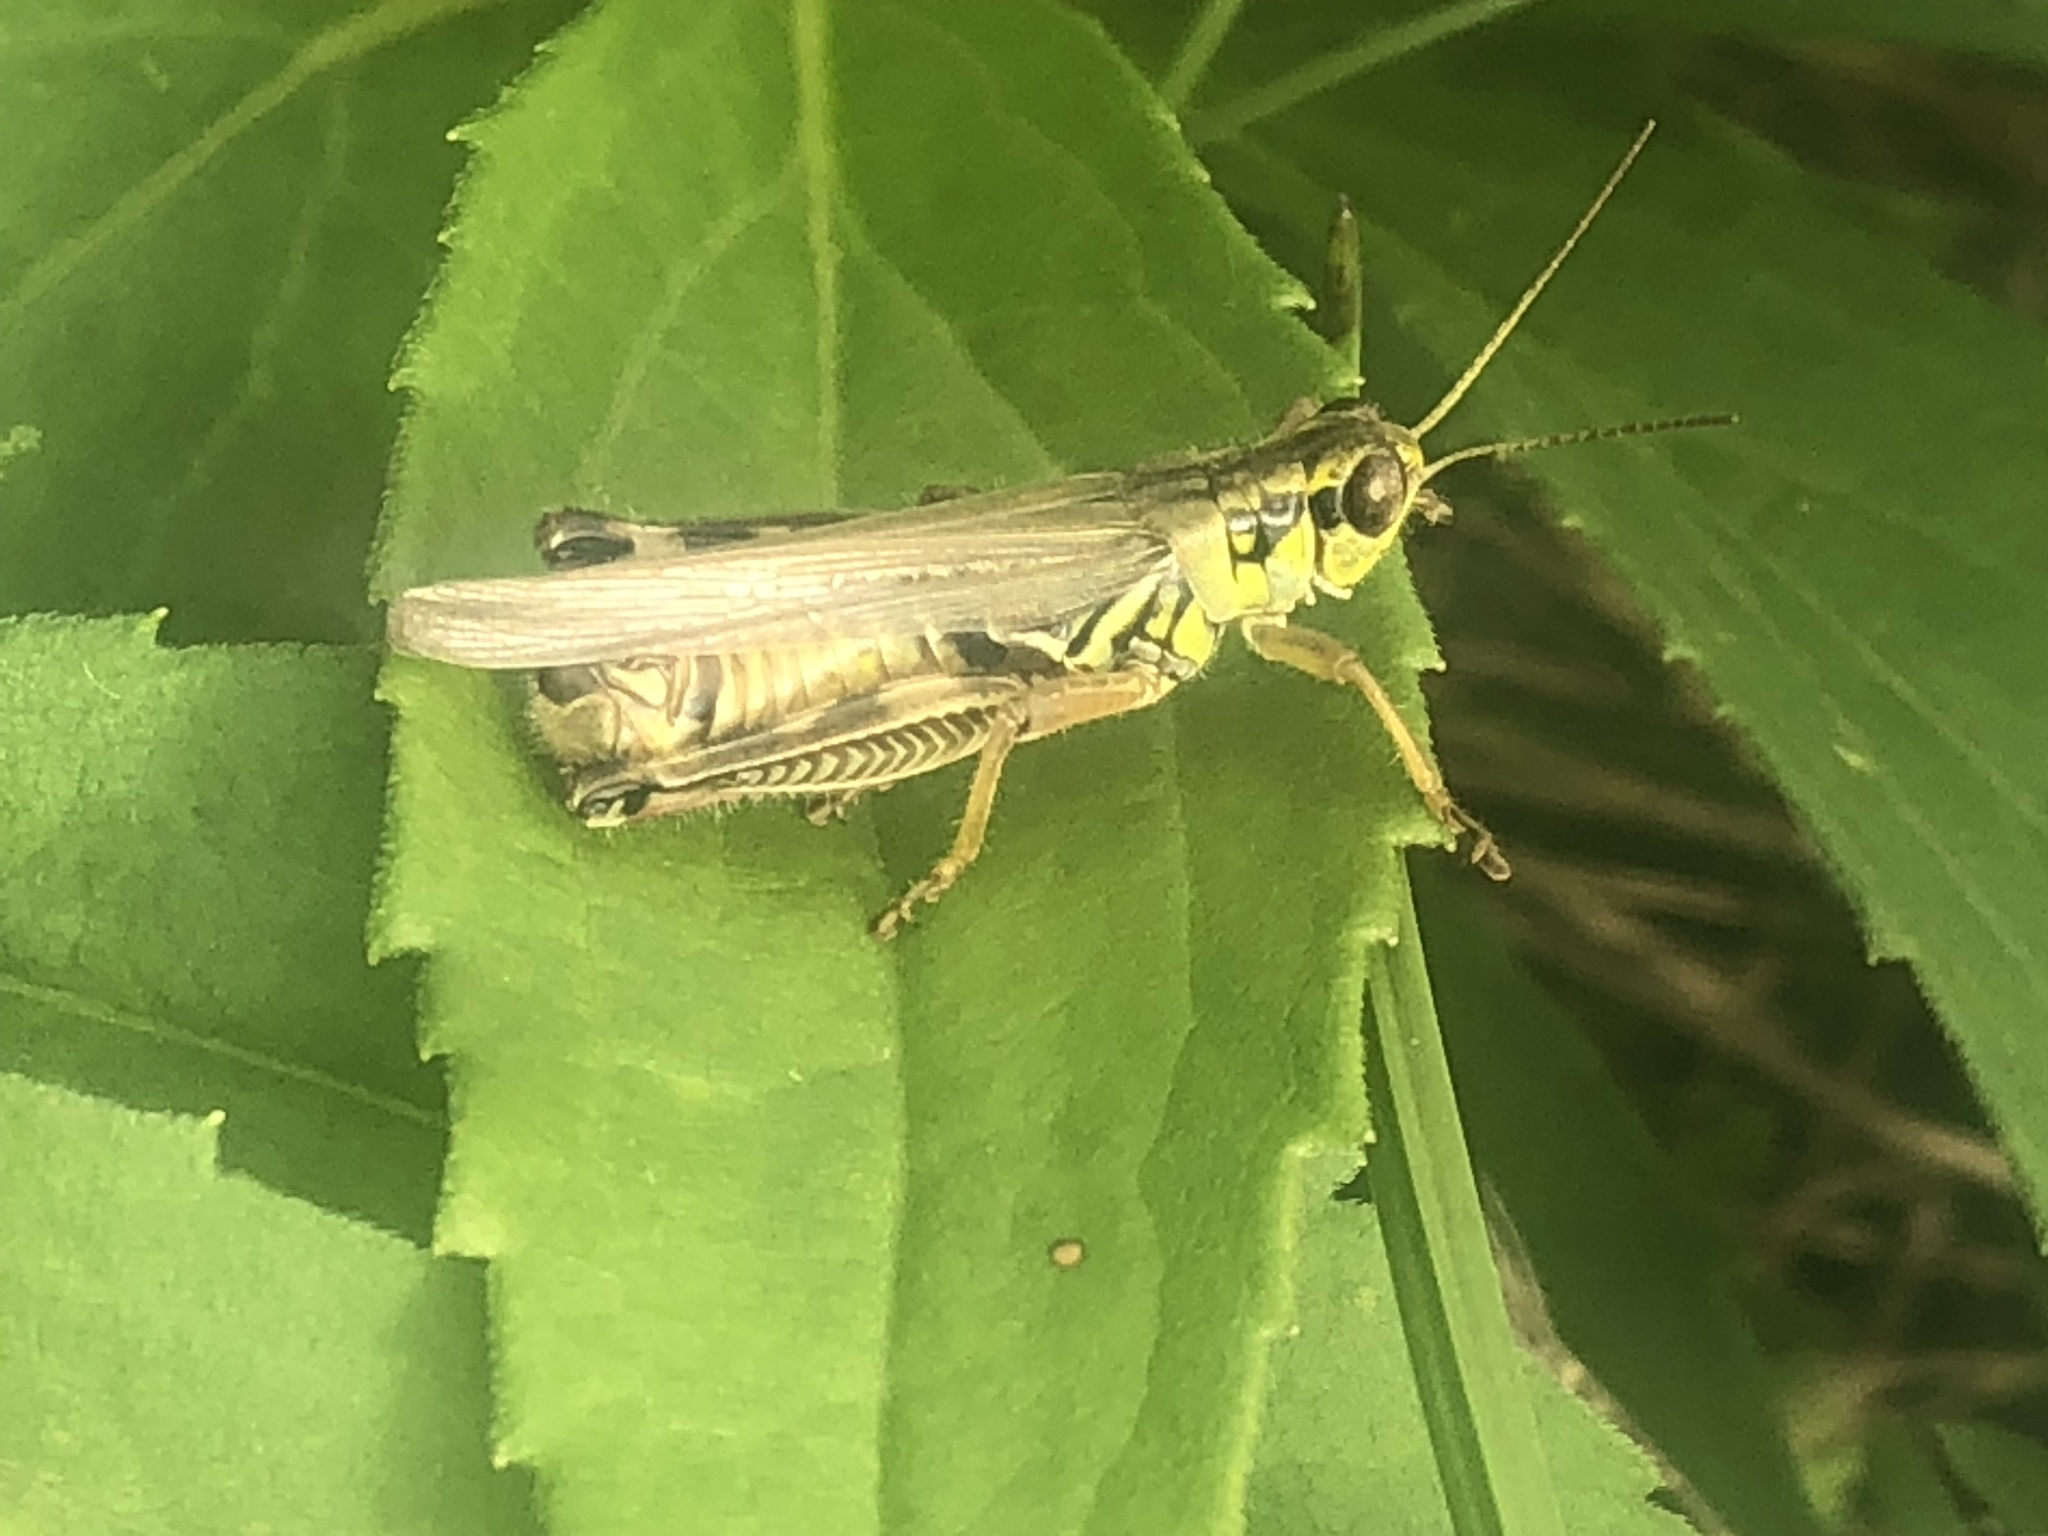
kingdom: Animalia
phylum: Arthropoda
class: Insecta
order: Orthoptera
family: Acrididae
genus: Melanoplus
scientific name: Melanoplus femurrubrum
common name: Red-legged grasshopper
